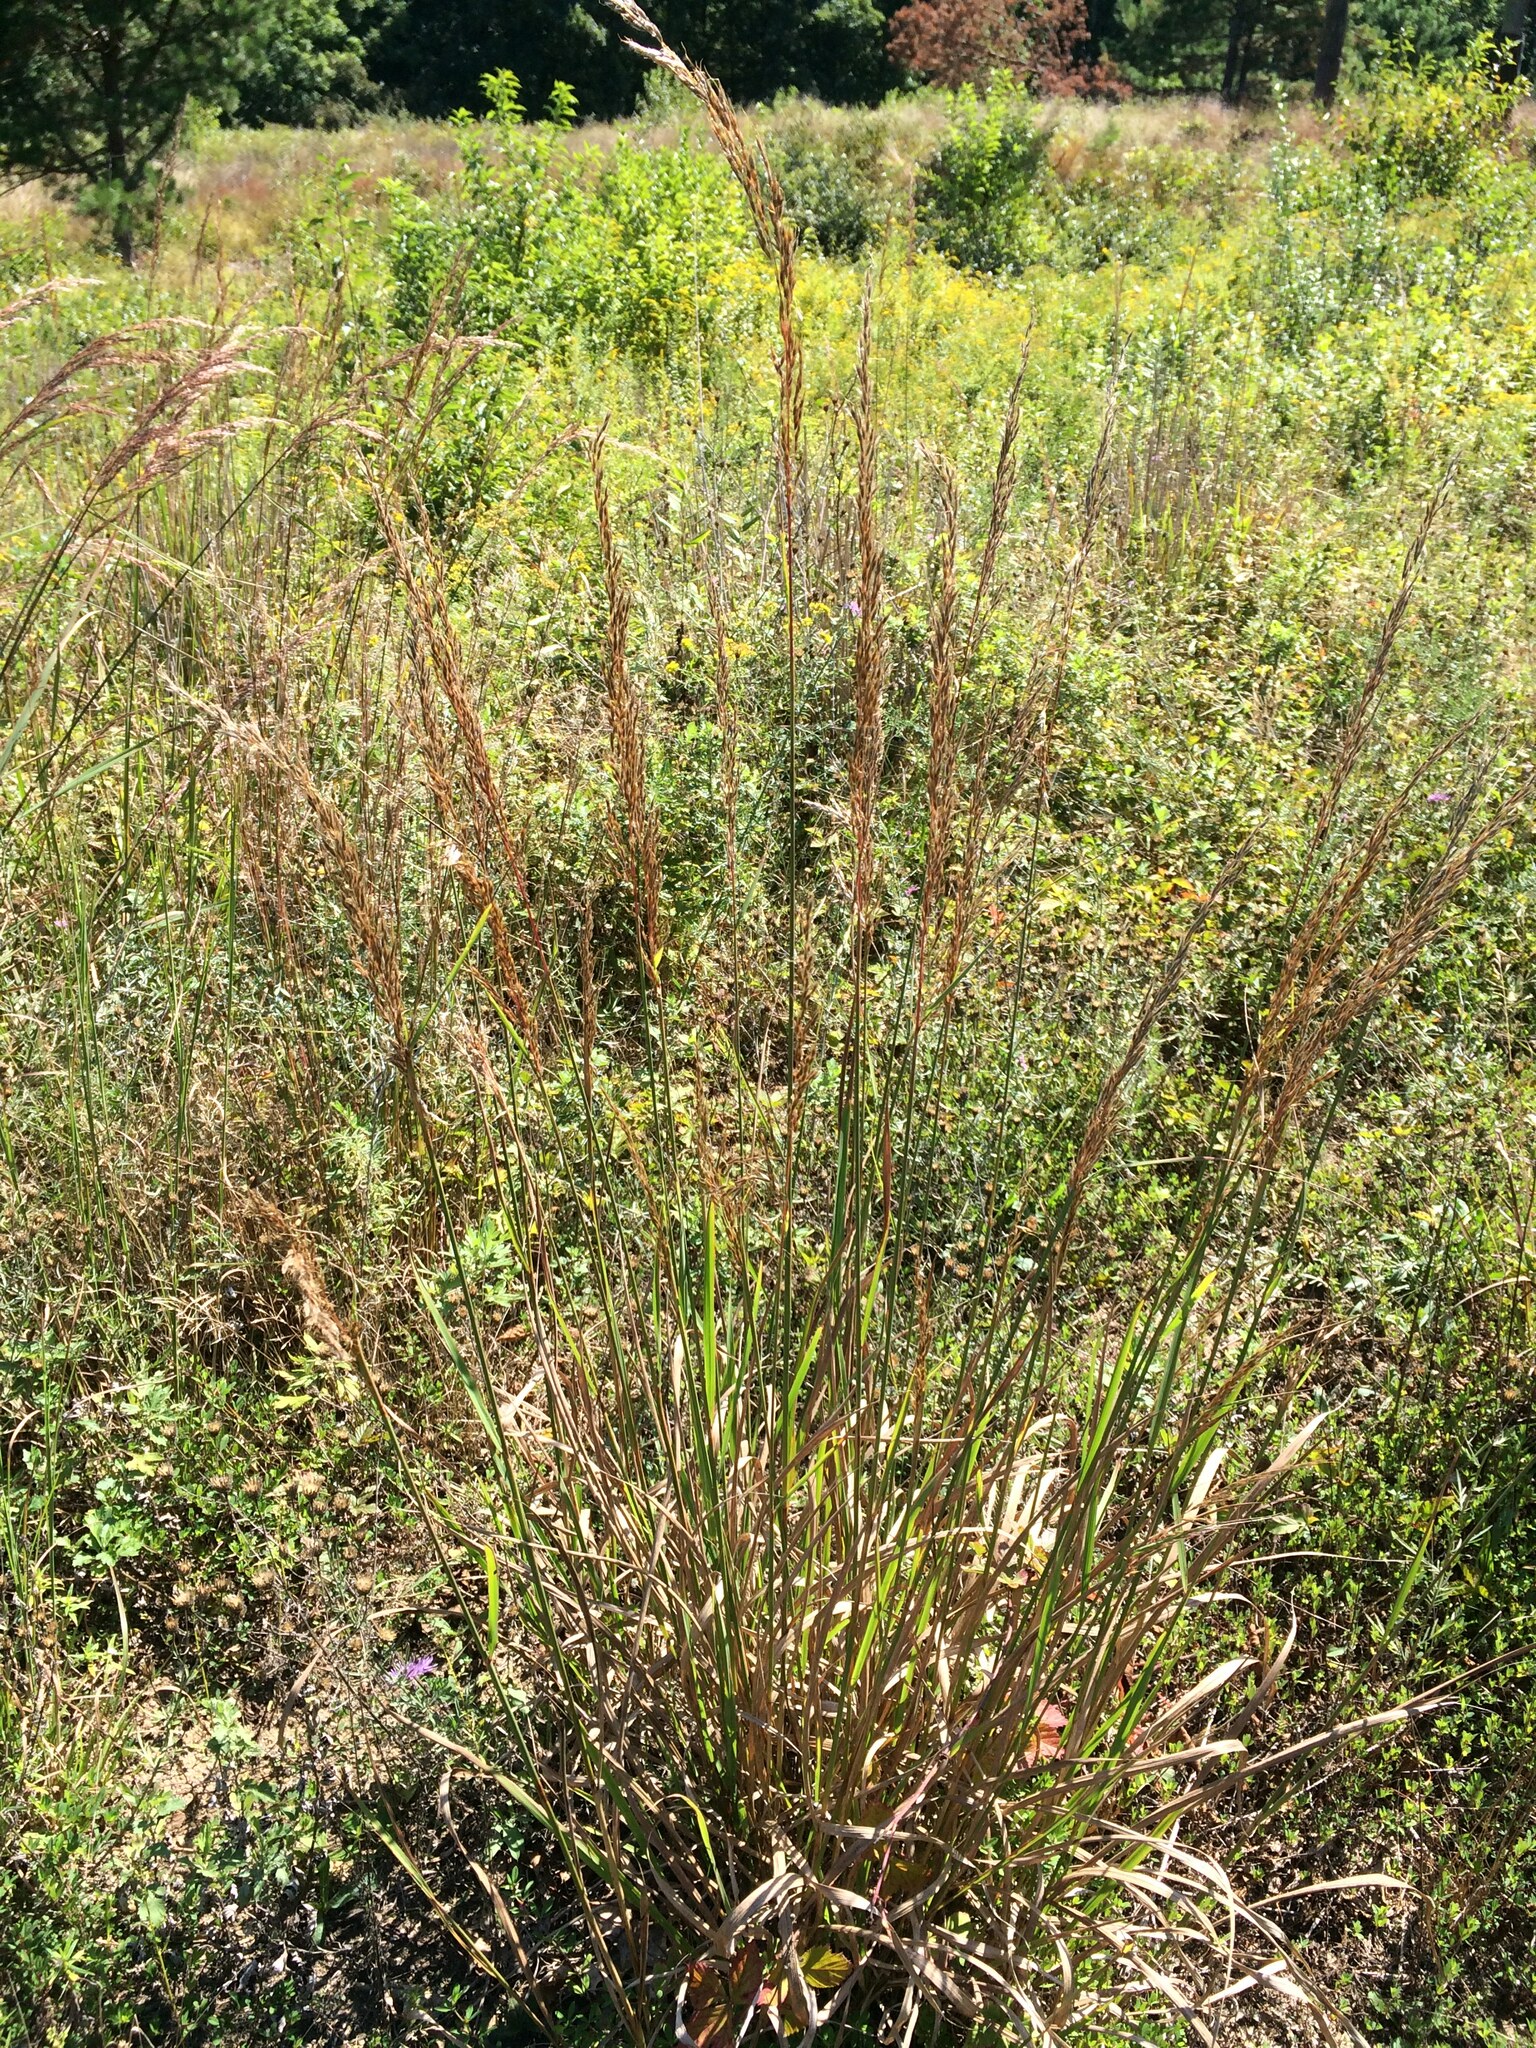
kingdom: Plantae
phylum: Tracheophyta
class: Liliopsida
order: Poales
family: Poaceae
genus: Sorghastrum
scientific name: Sorghastrum nutans
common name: Indian grass
